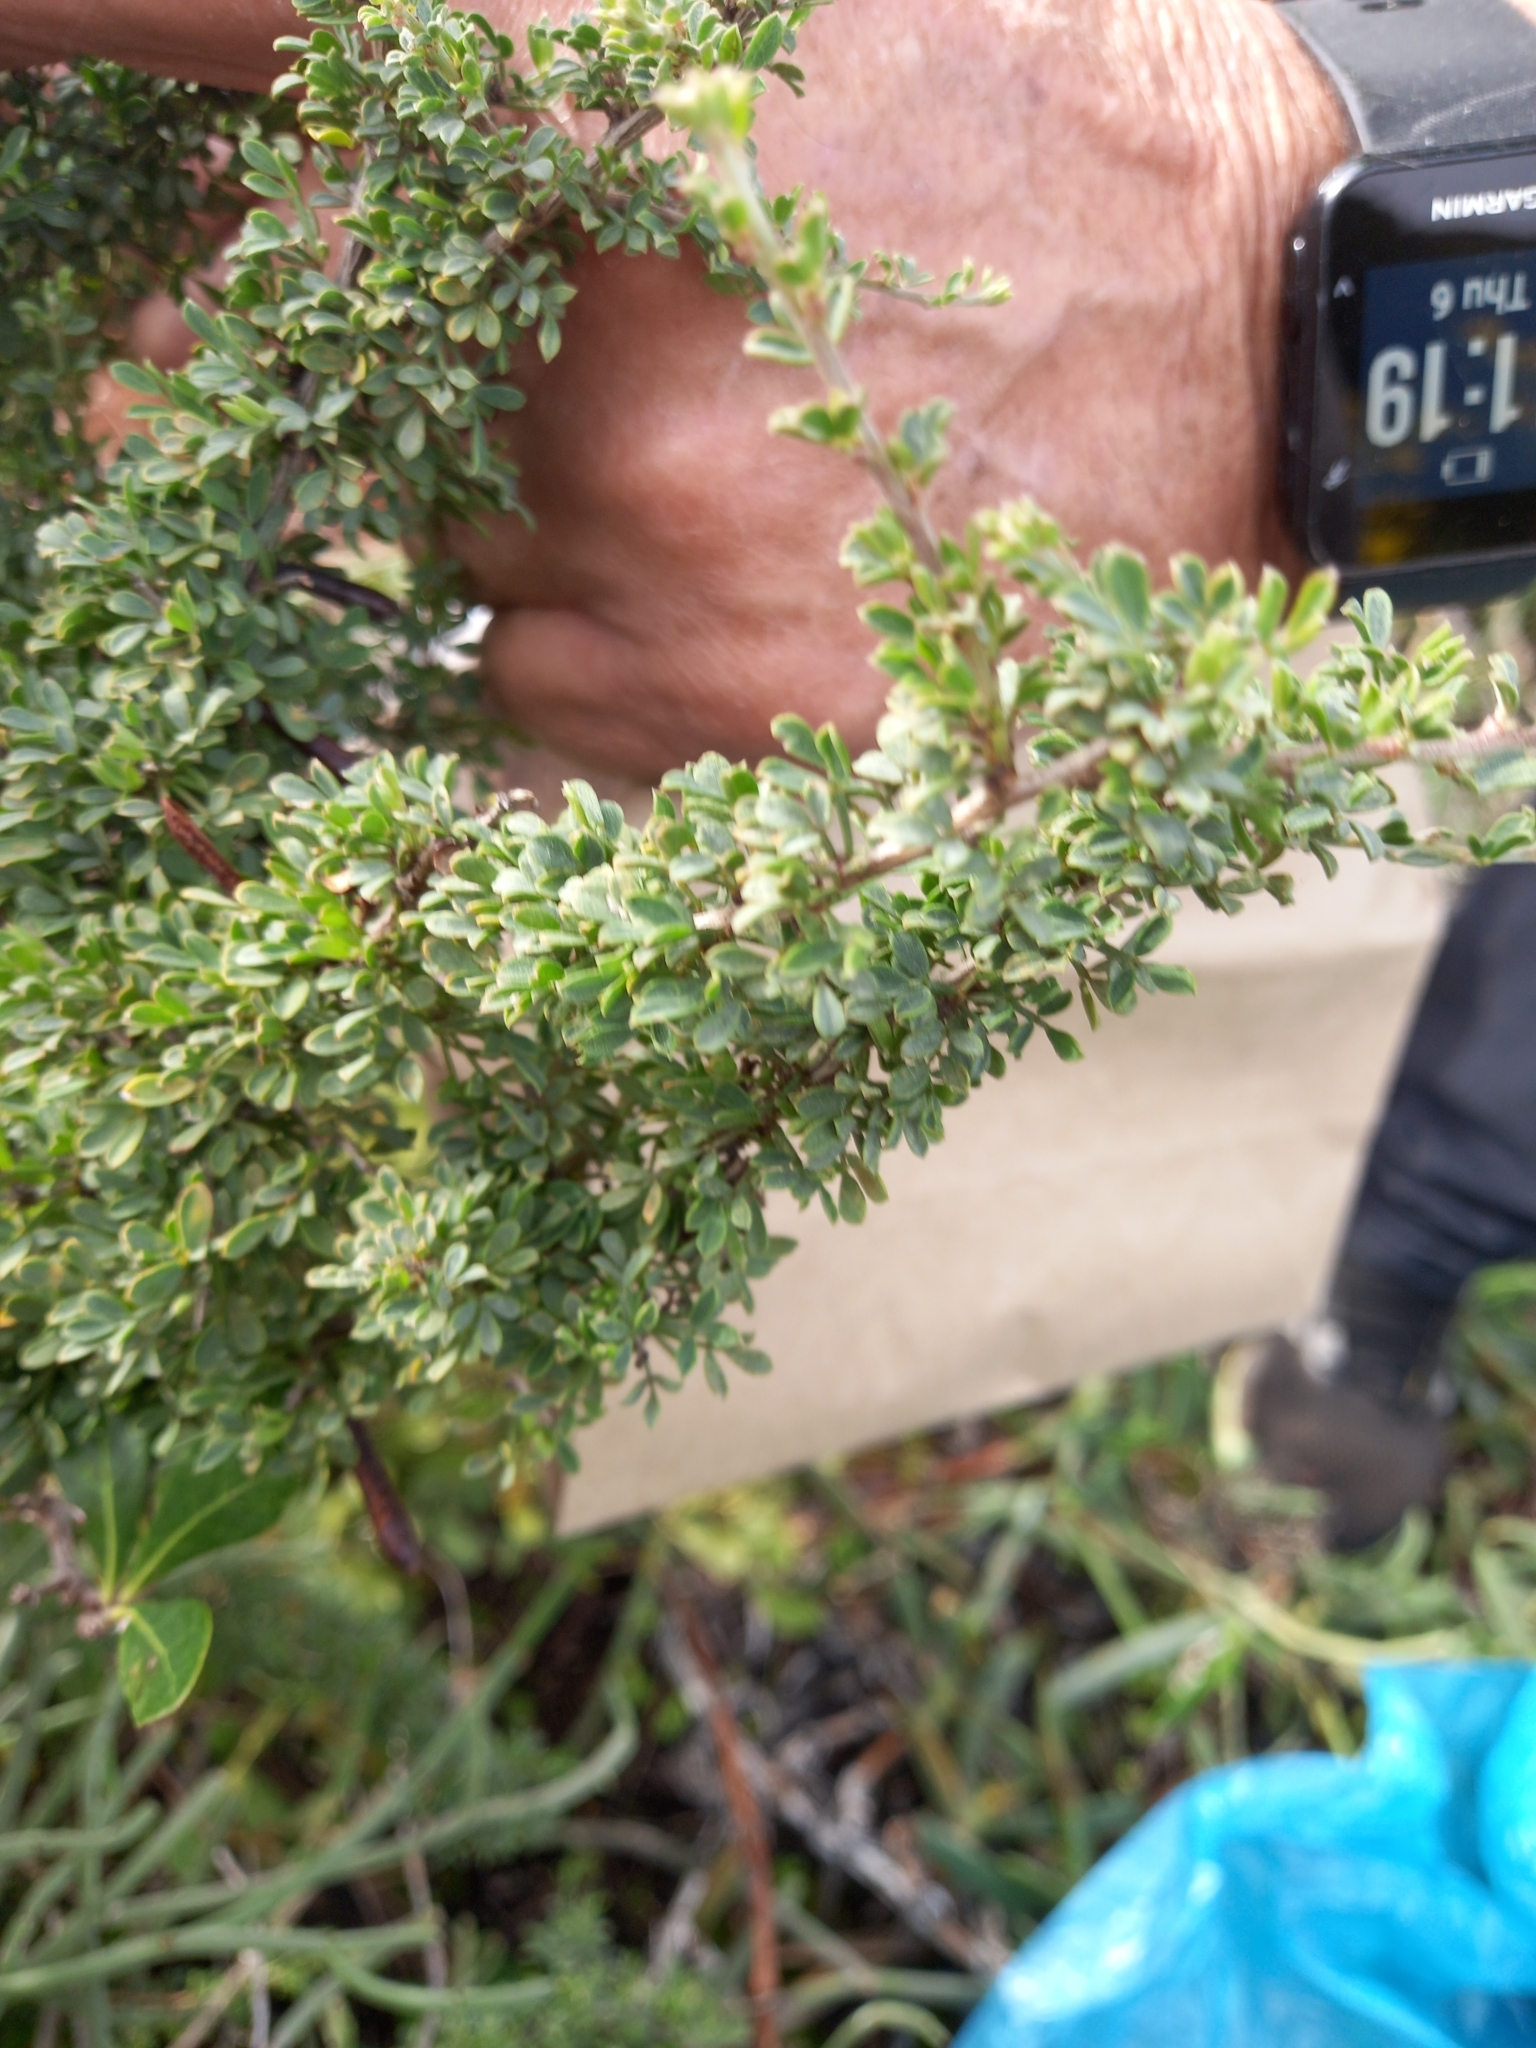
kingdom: Plantae
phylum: Tracheophyta
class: Magnoliopsida
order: Fabales
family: Fabaceae
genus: Indigofera
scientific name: Indigofera nigromontana
